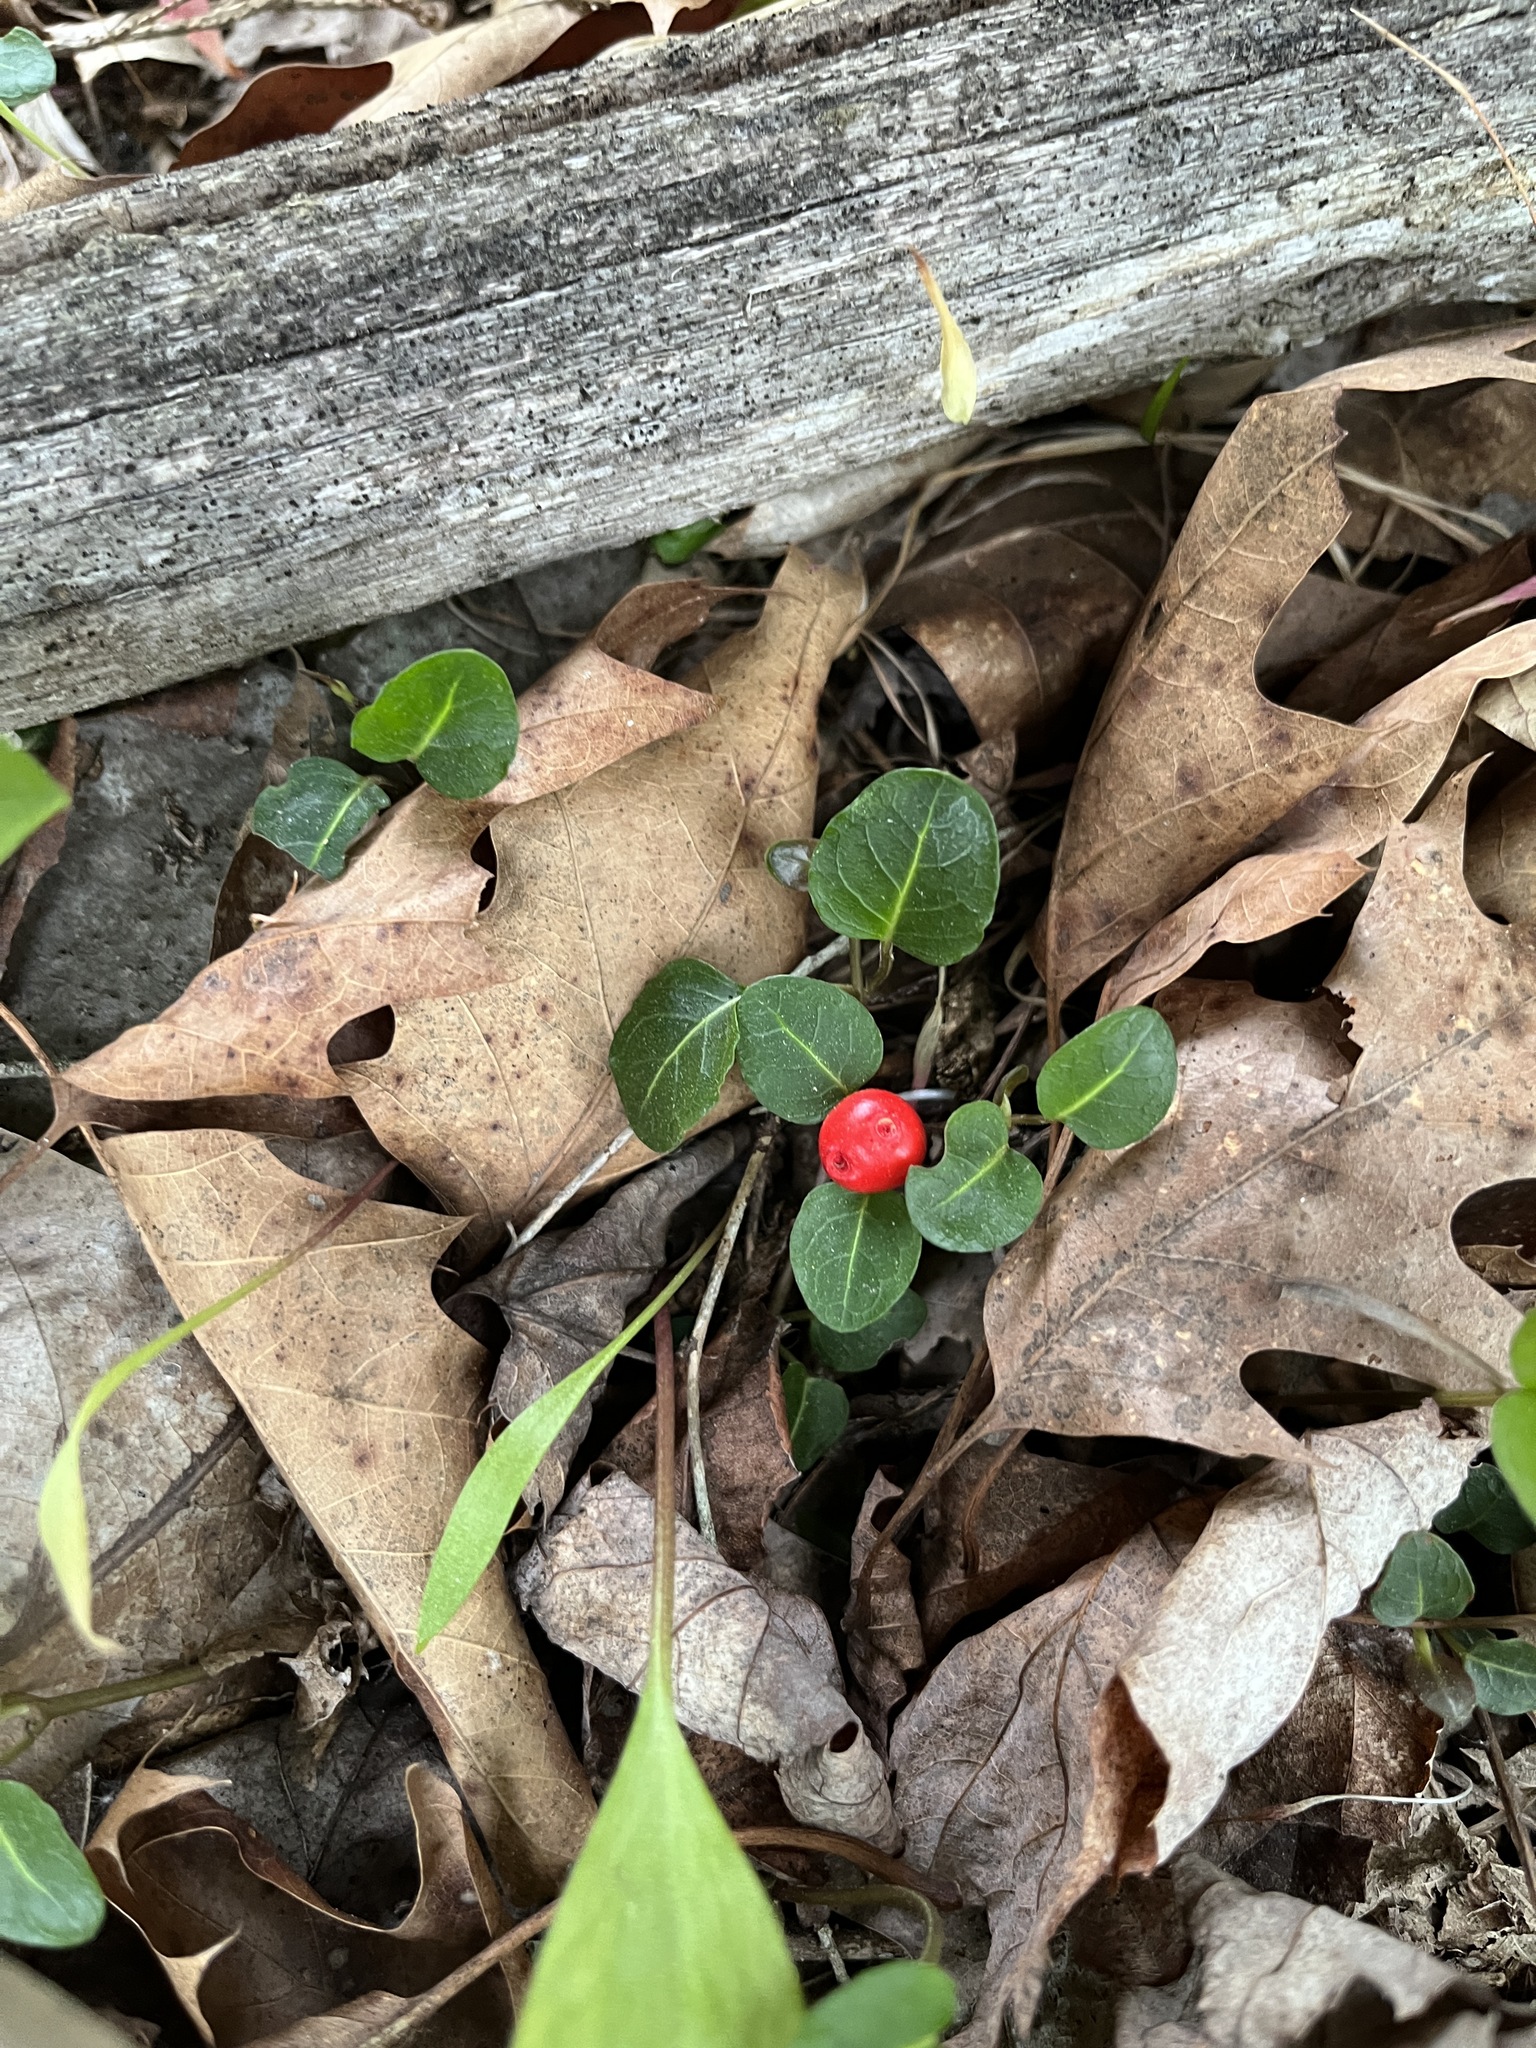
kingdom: Plantae
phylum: Tracheophyta
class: Magnoliopsida
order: Gentianales
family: Rubiaceae
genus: Mitchella
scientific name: Mitchella repens
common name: Partridge-berry
